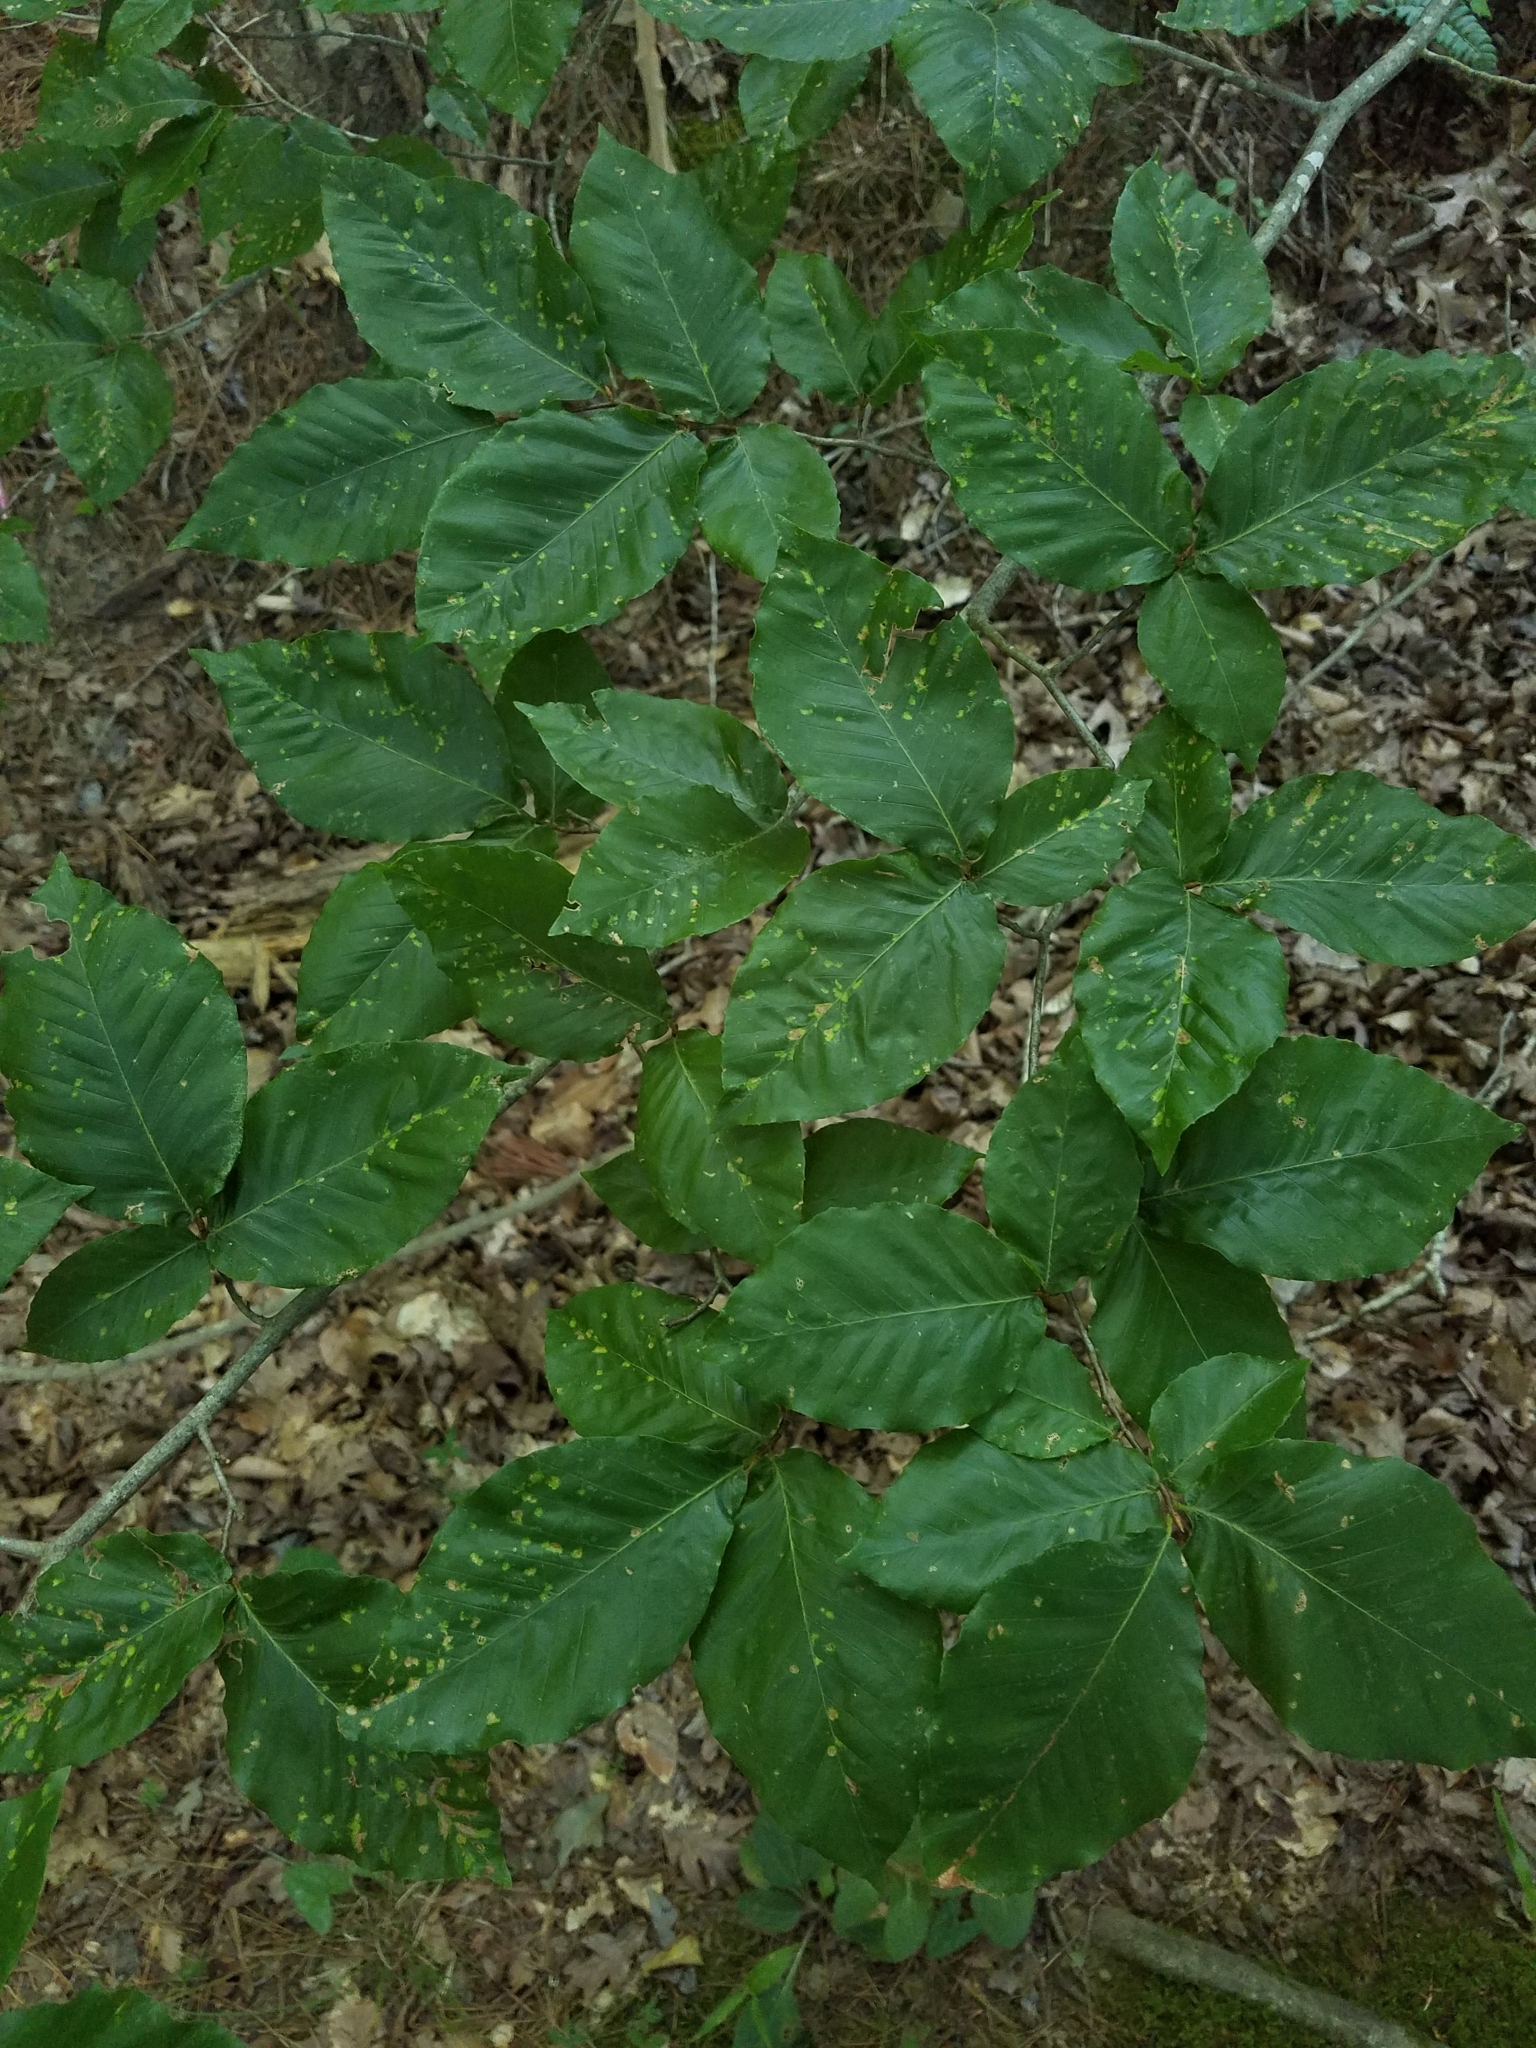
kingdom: Plantae
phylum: Tracheophyta
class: Magnoliopsida
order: Fagales
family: Fagaceae
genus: Fagus
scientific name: Fagus grandifolia
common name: American beech
